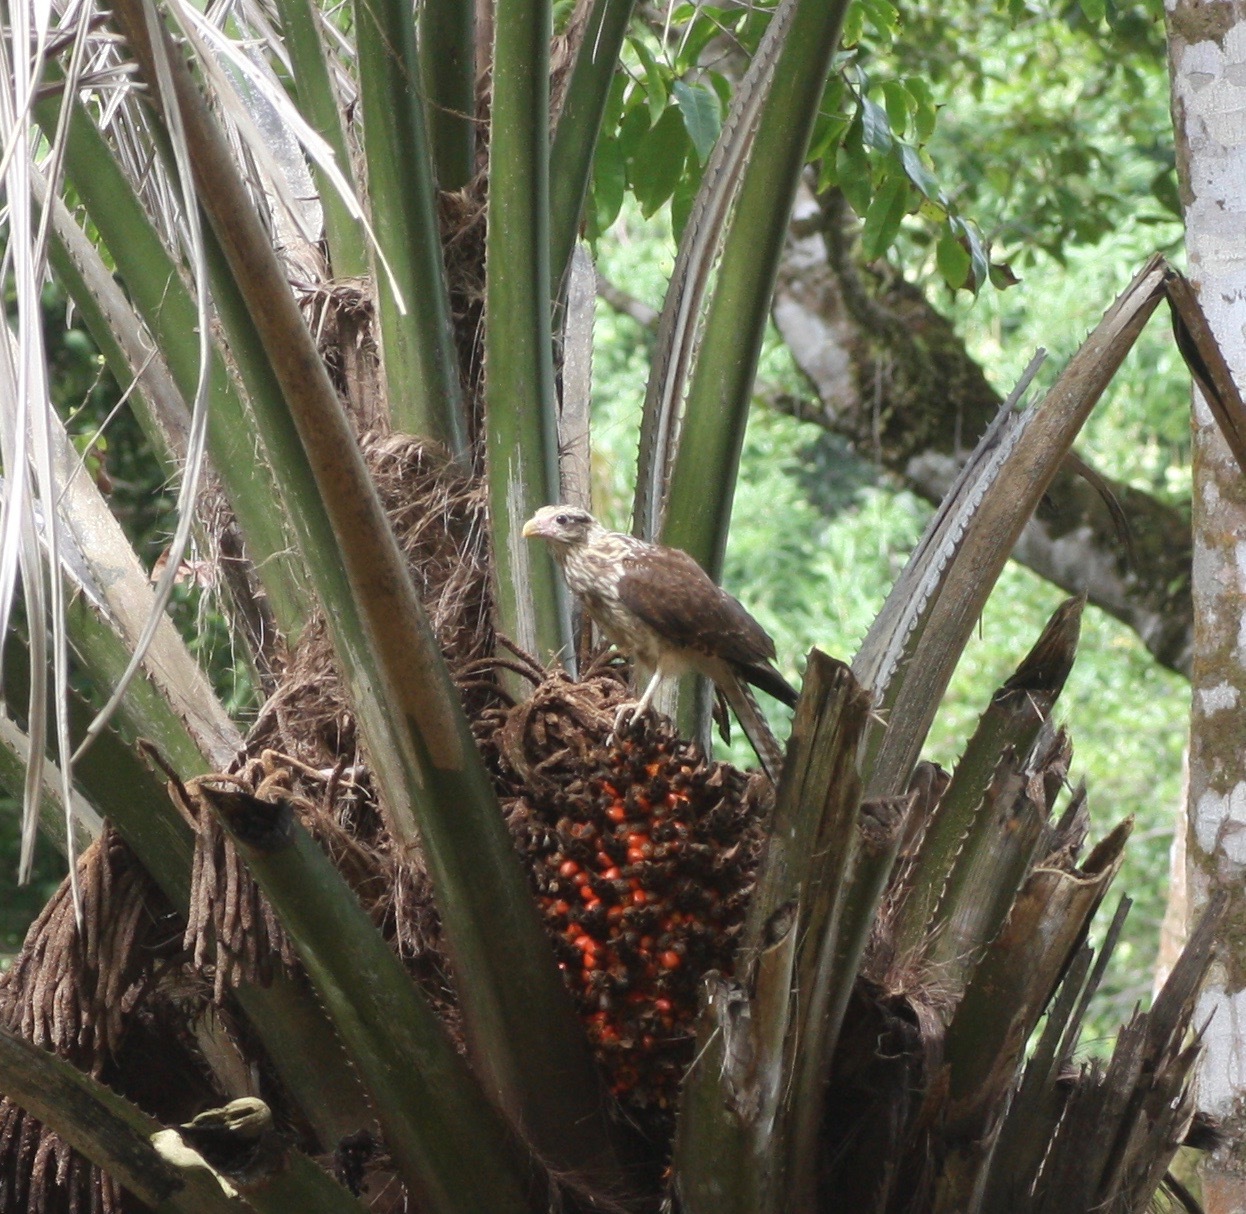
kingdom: Animalia
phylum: Chordata
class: Aves
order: Falconiformes
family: Falconidae
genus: Daptrius
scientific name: Daptrius
